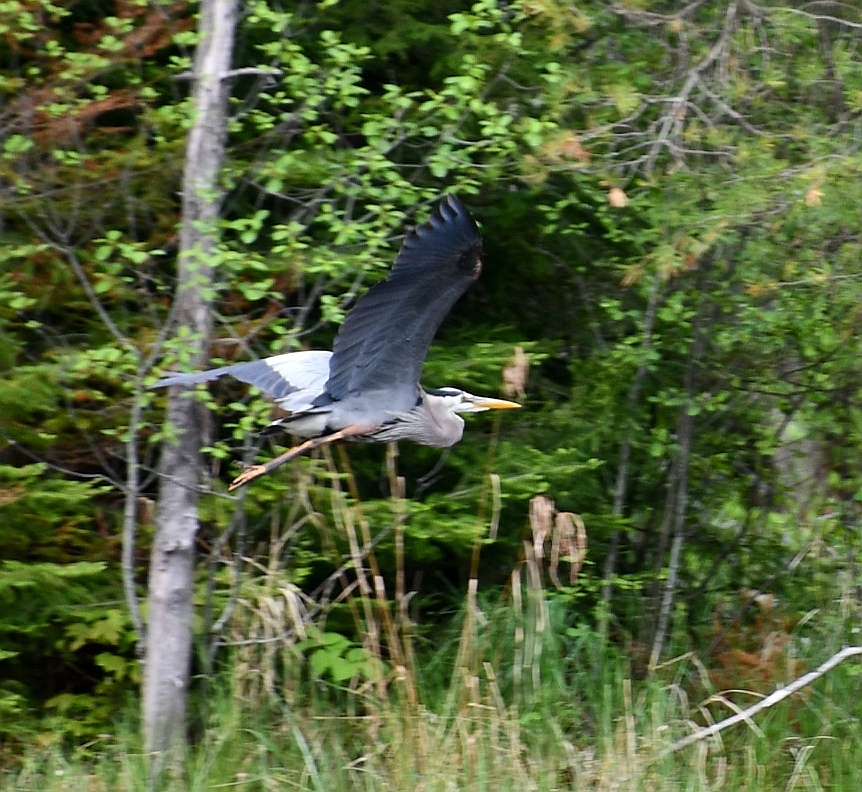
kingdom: Animalia
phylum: Chordata
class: Aves
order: Pelecaniformes
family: Ardeidae
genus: Ardea
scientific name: Ardea herodias
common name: Great blue heron
